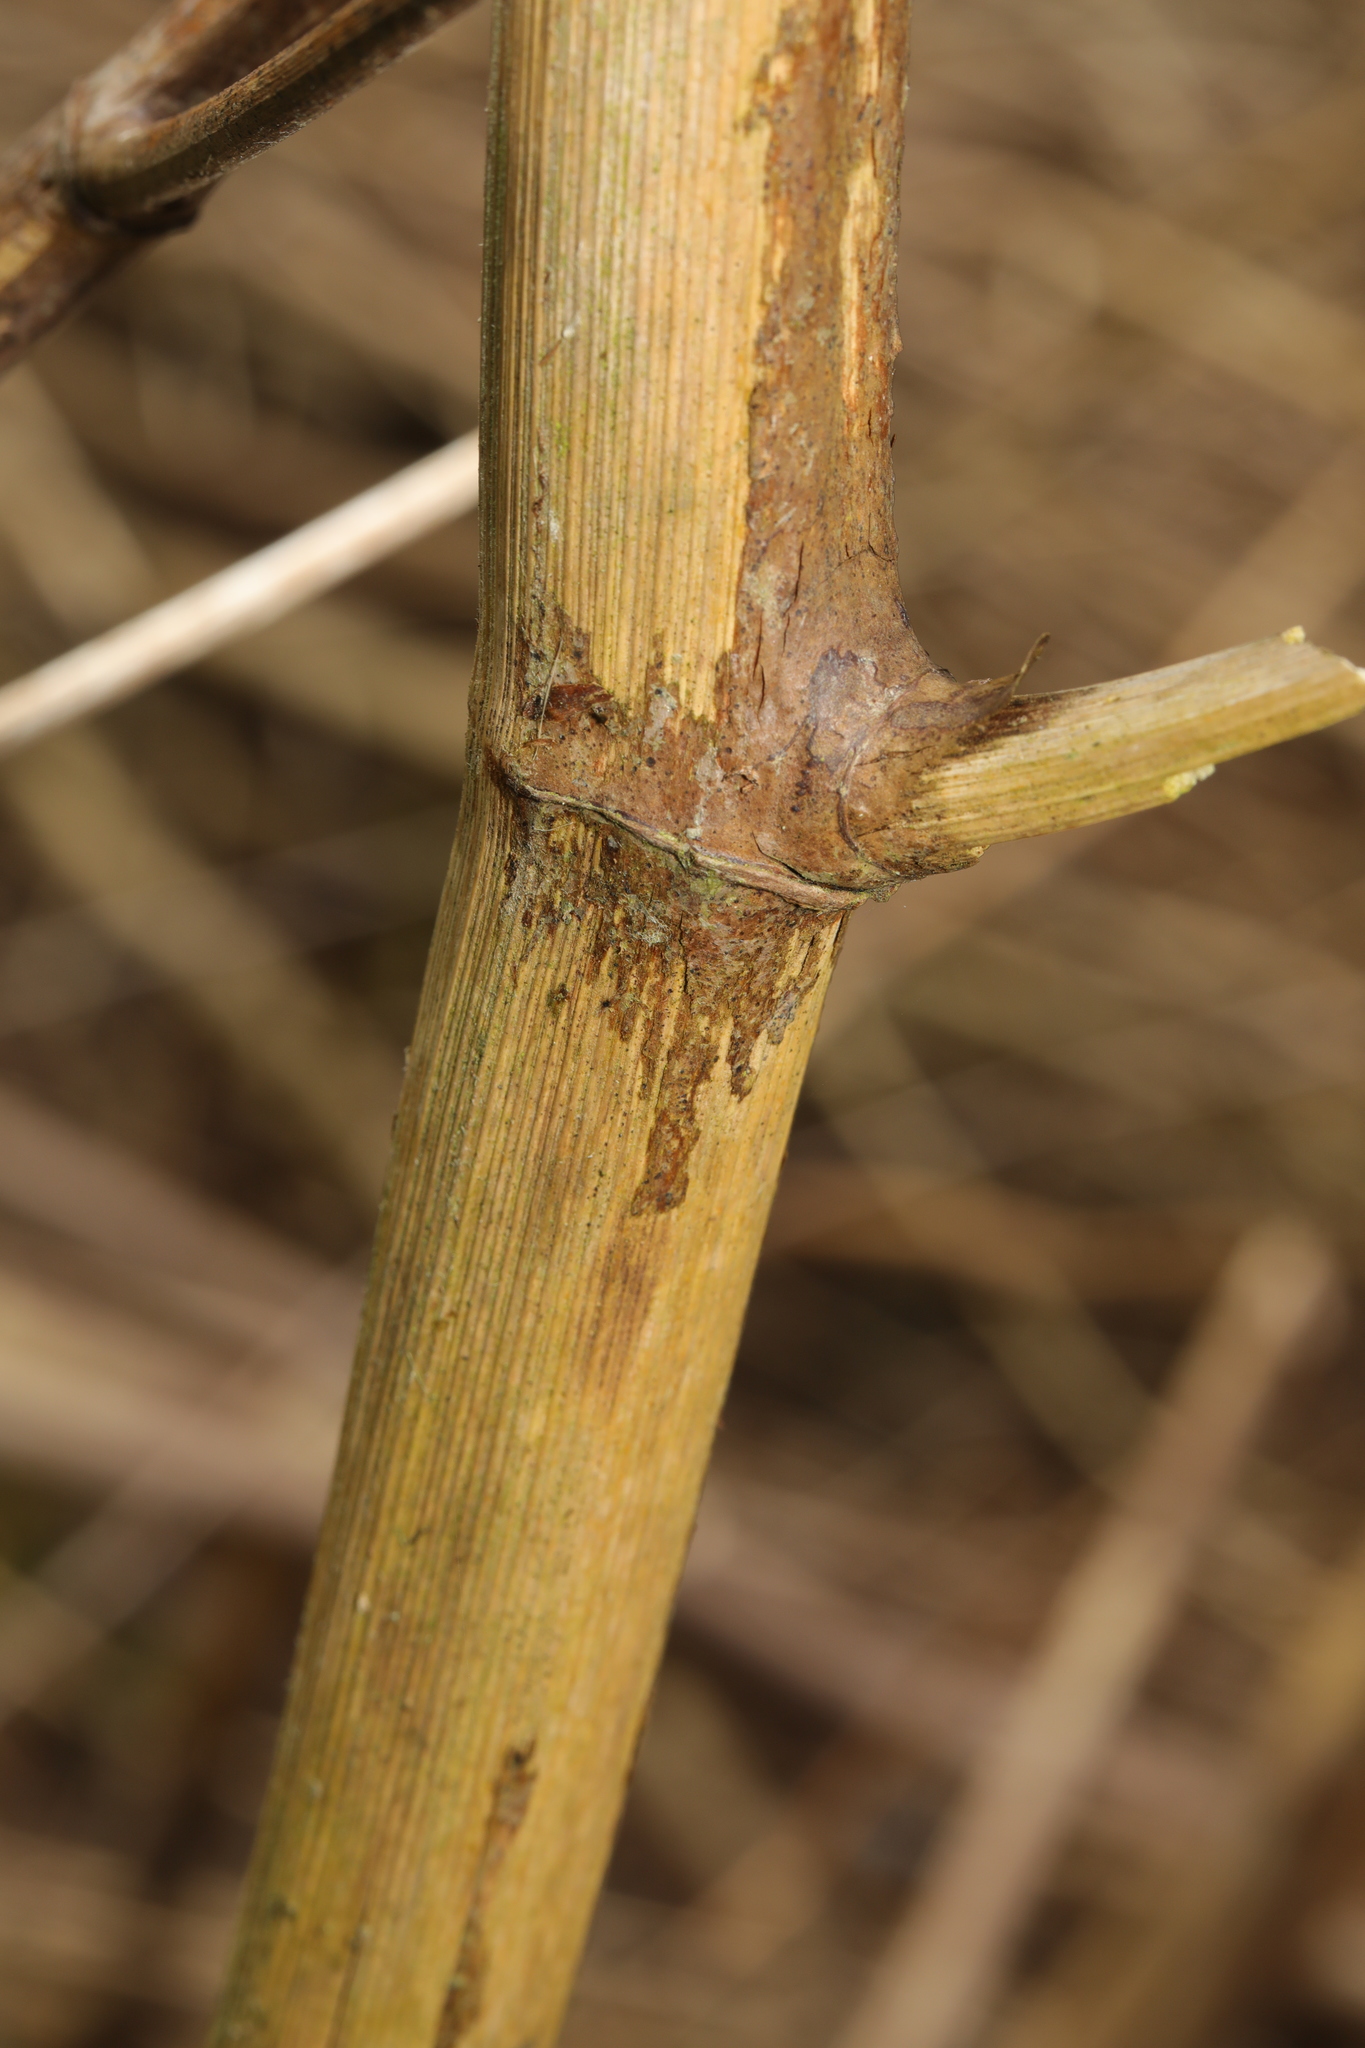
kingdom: Plantae
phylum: Tracheophyta
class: Magnoliopsida
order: Caryophyllales
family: Polygonaceae
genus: Reynoutria
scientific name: Reynoutria japonica
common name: Japanese knotweed
